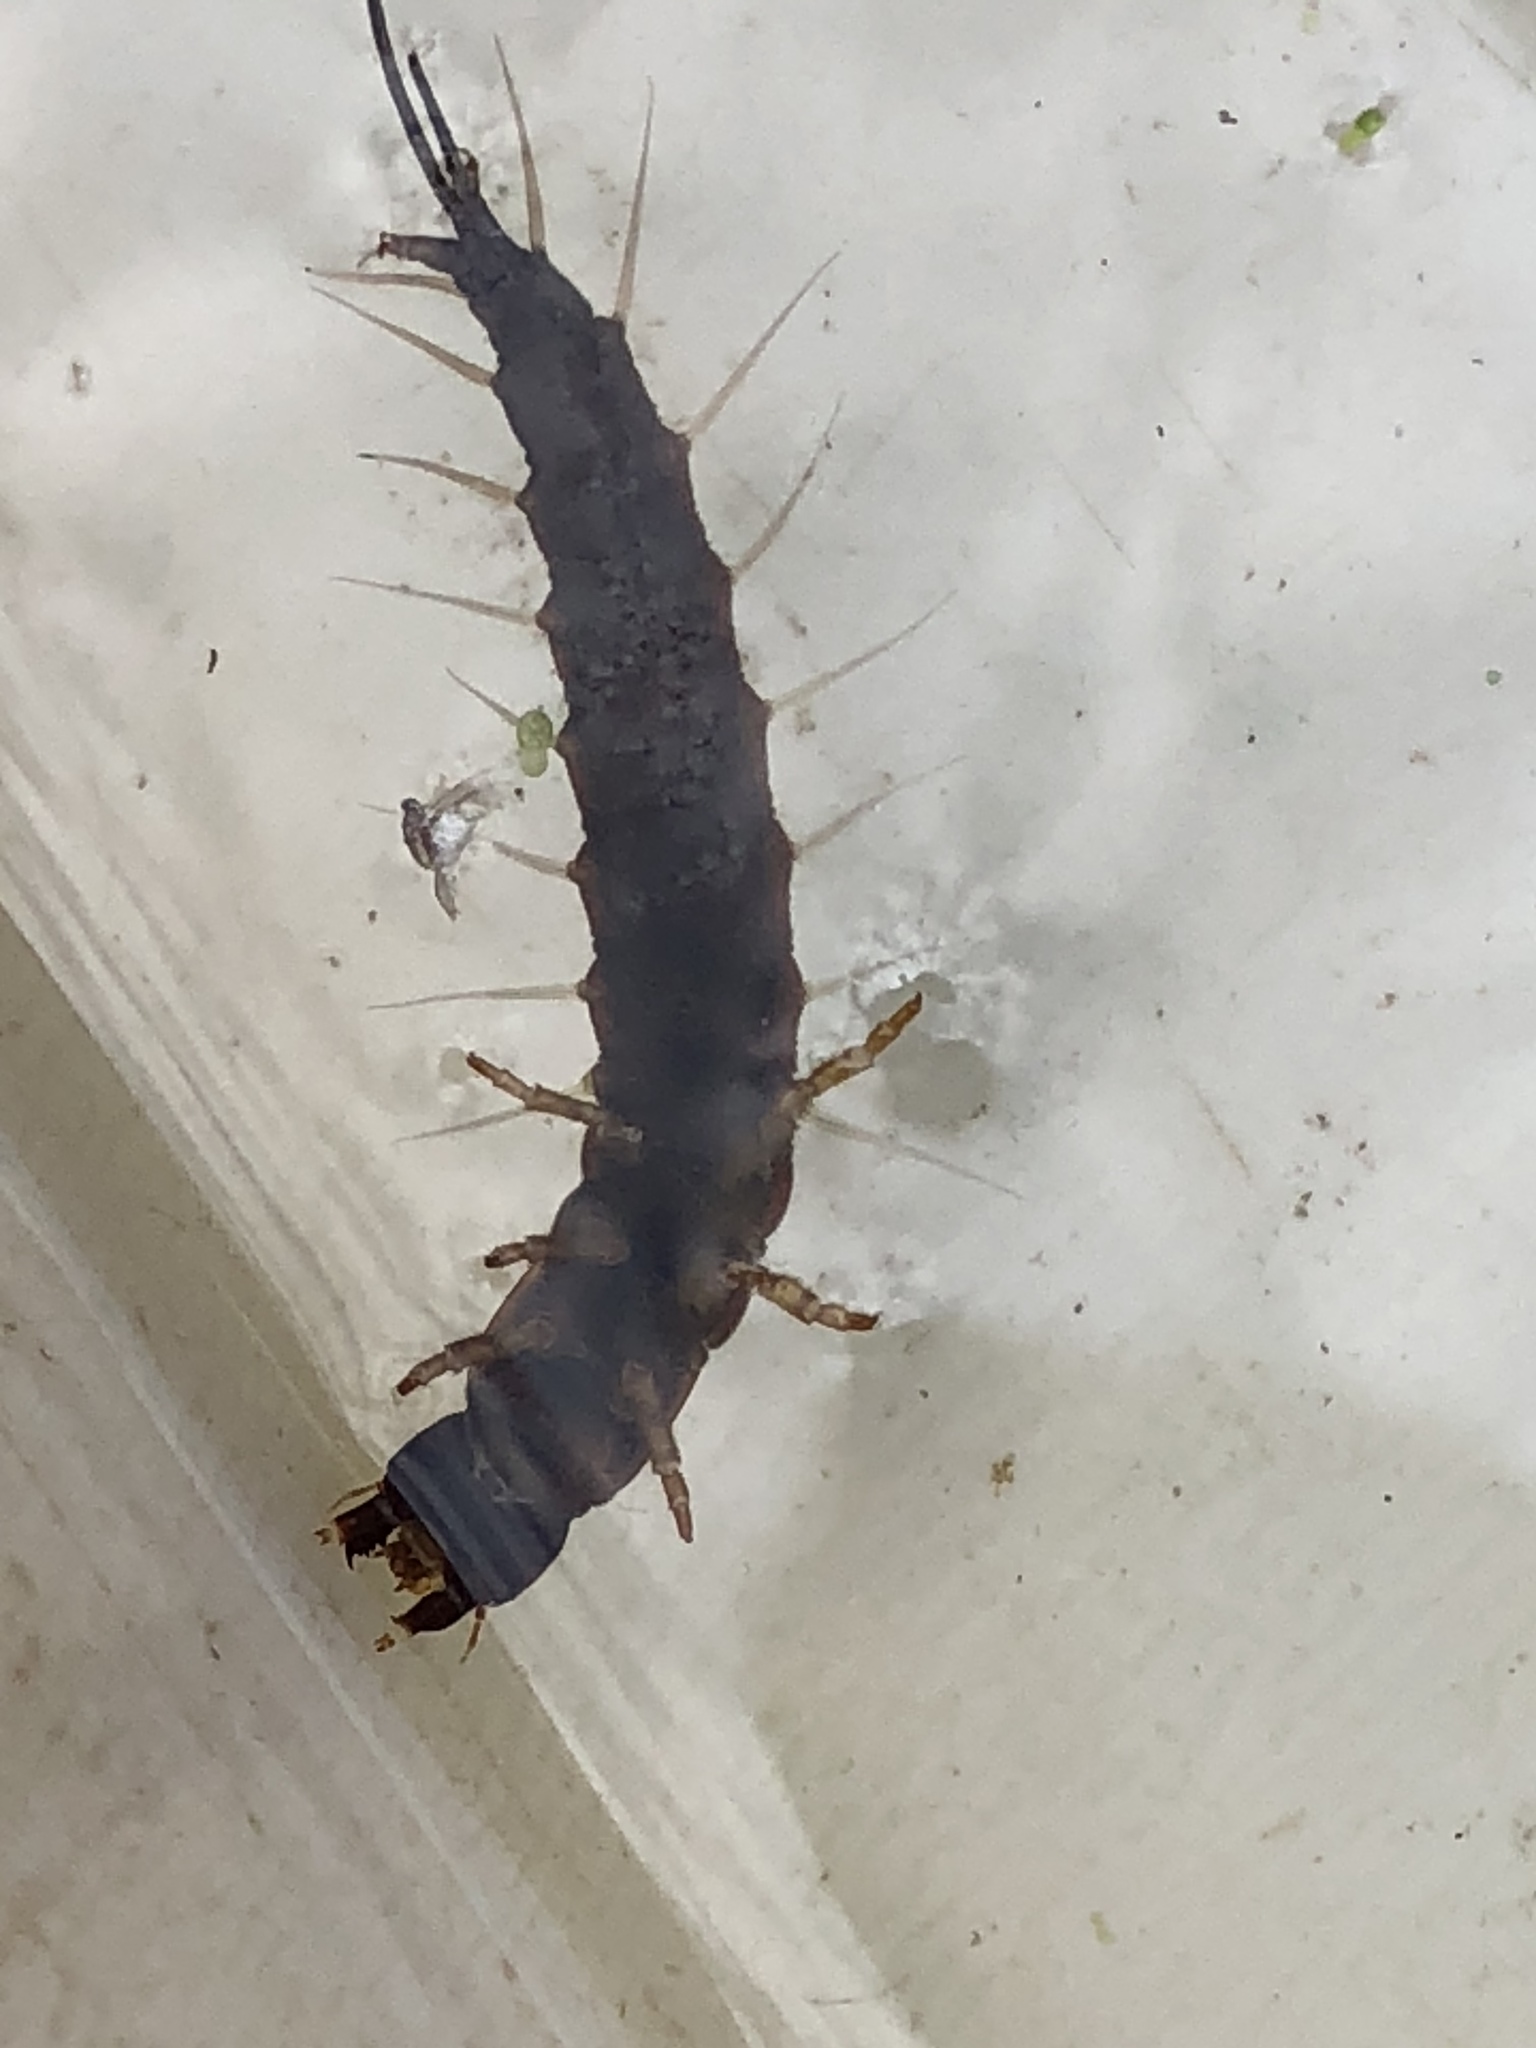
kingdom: Animalia
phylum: Arthropoda
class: Insecta
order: Megaloptera
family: Corydalidae
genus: Chauliodes
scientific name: Chauliodes
